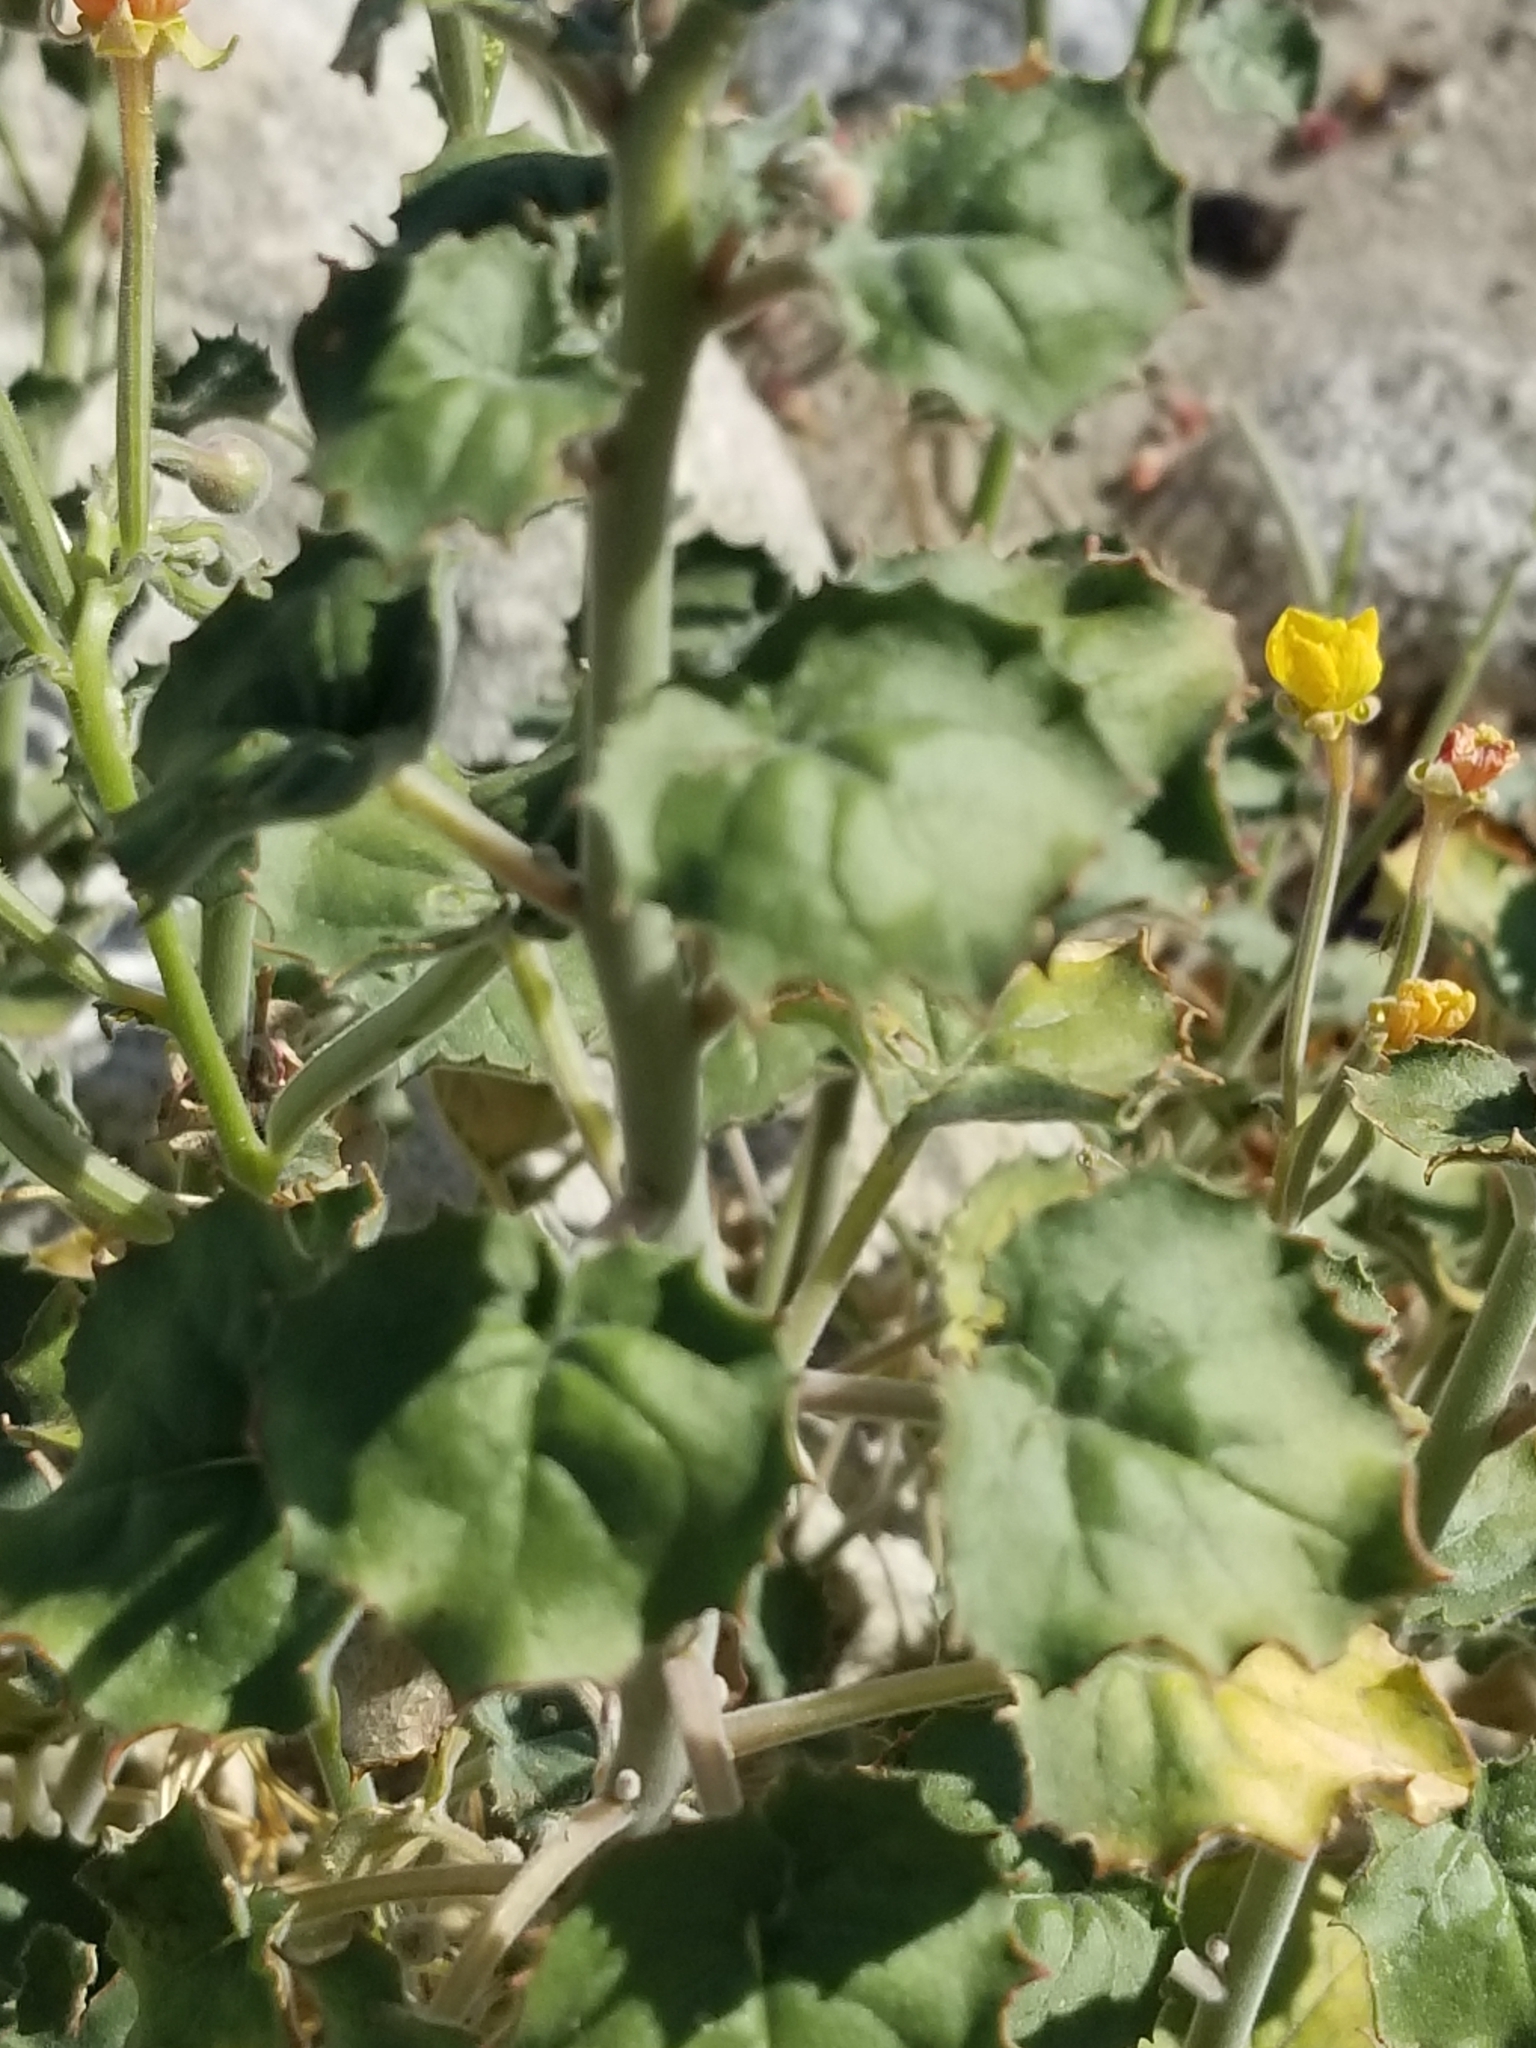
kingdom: Plantae
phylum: Tracheophyta
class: Magnoliopsida
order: Myrtales
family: Onagraceae
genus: Chylismia
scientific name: Chylismia cardiophylla
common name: Heartleaf suncup
